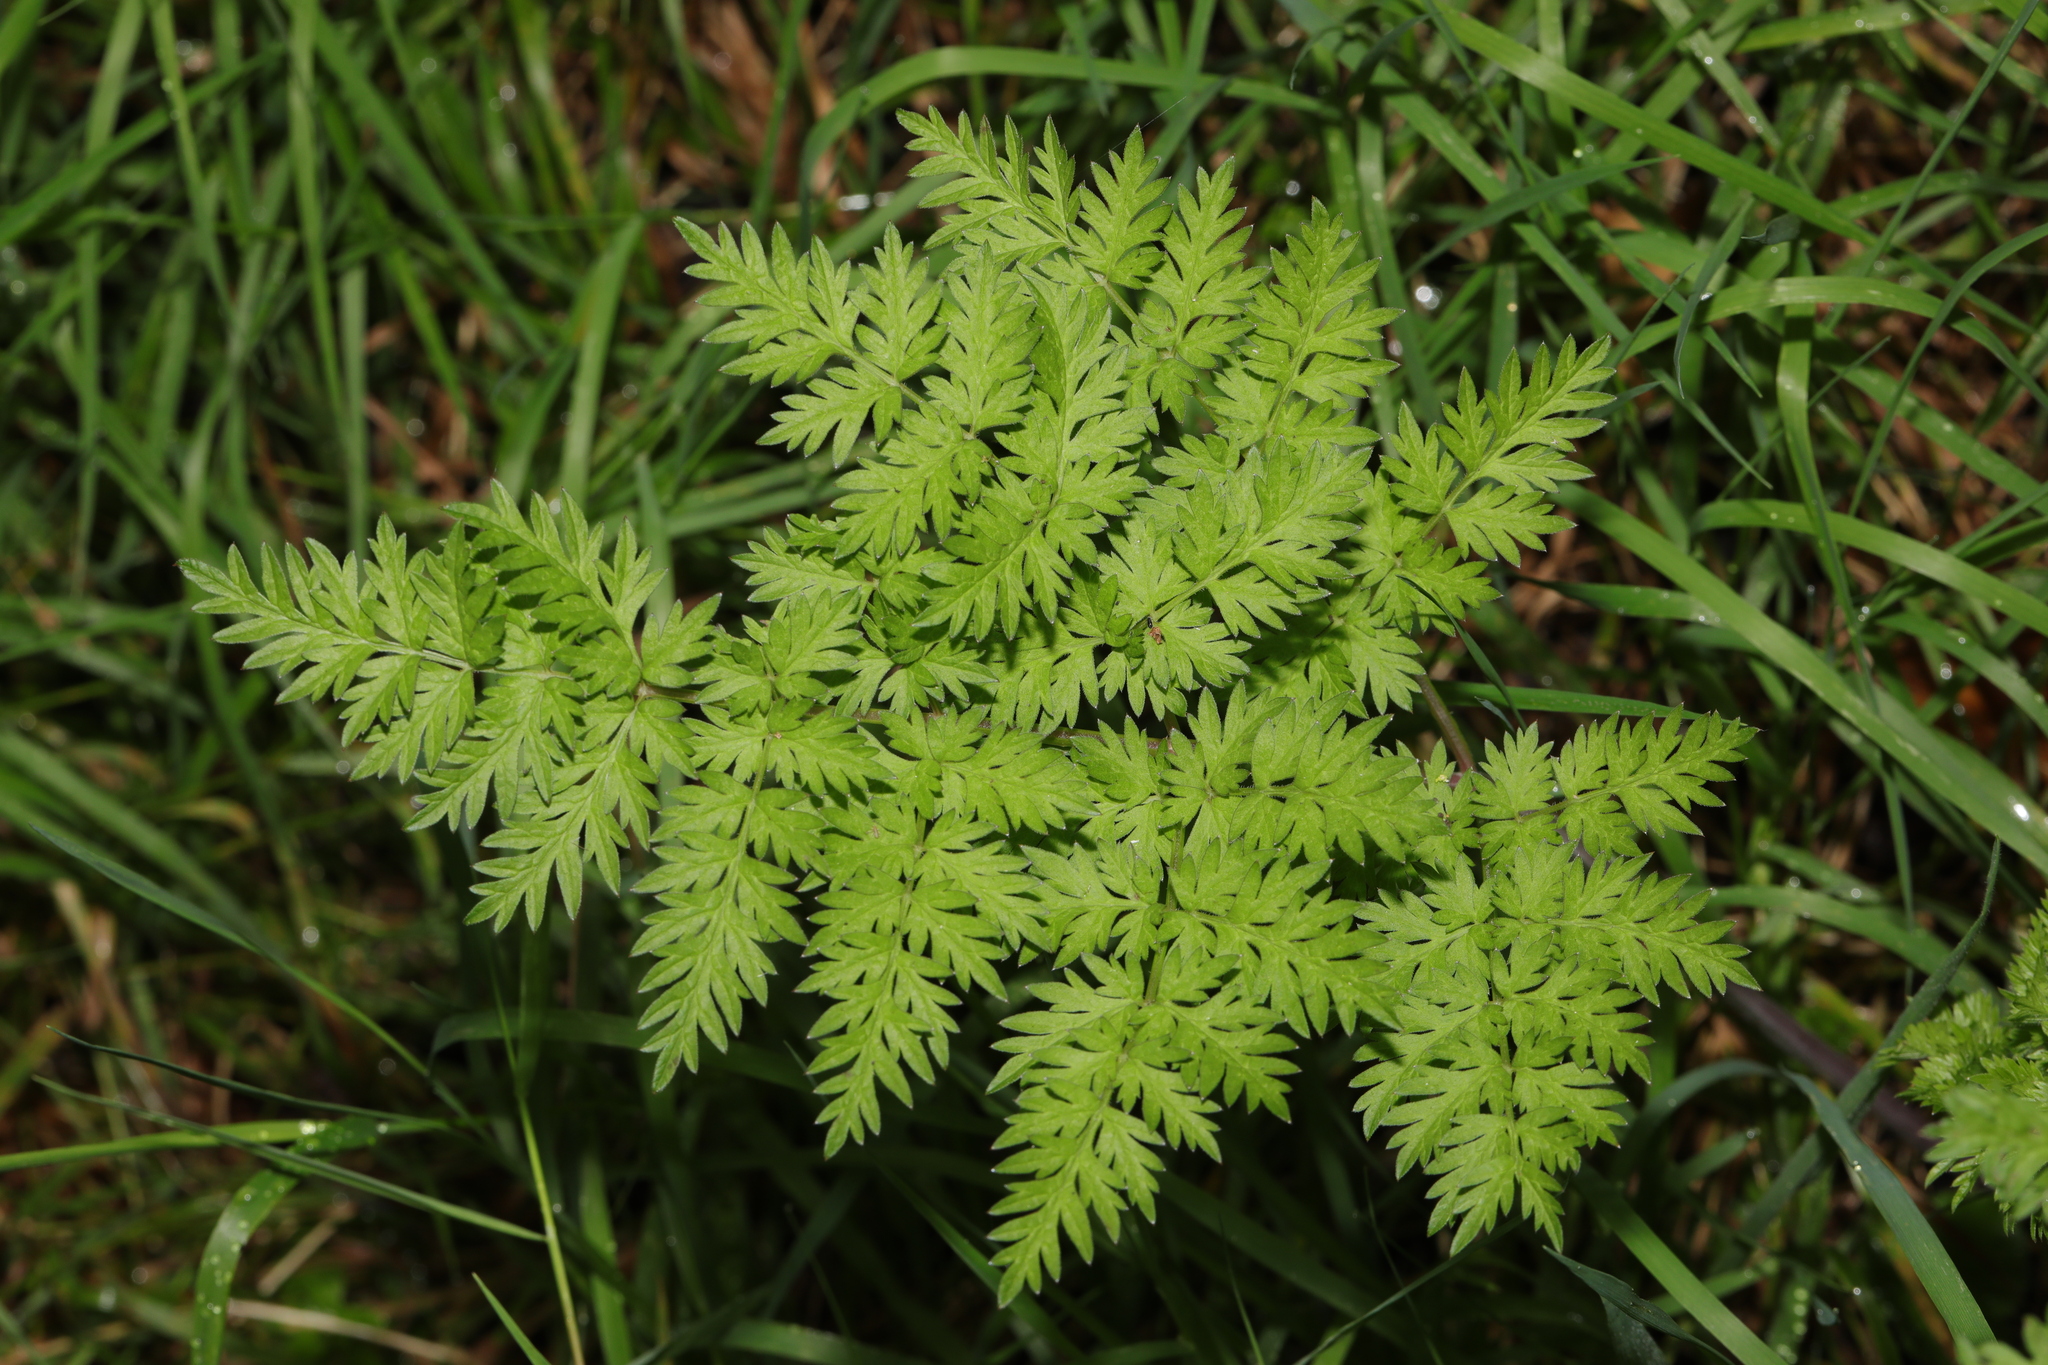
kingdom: Plantae
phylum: Tracheophyta
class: Magnoliopsida
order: Apiales
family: Apiaceae
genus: Anthriscus
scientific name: Anthriscus sylvestris
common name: Cow parsley
